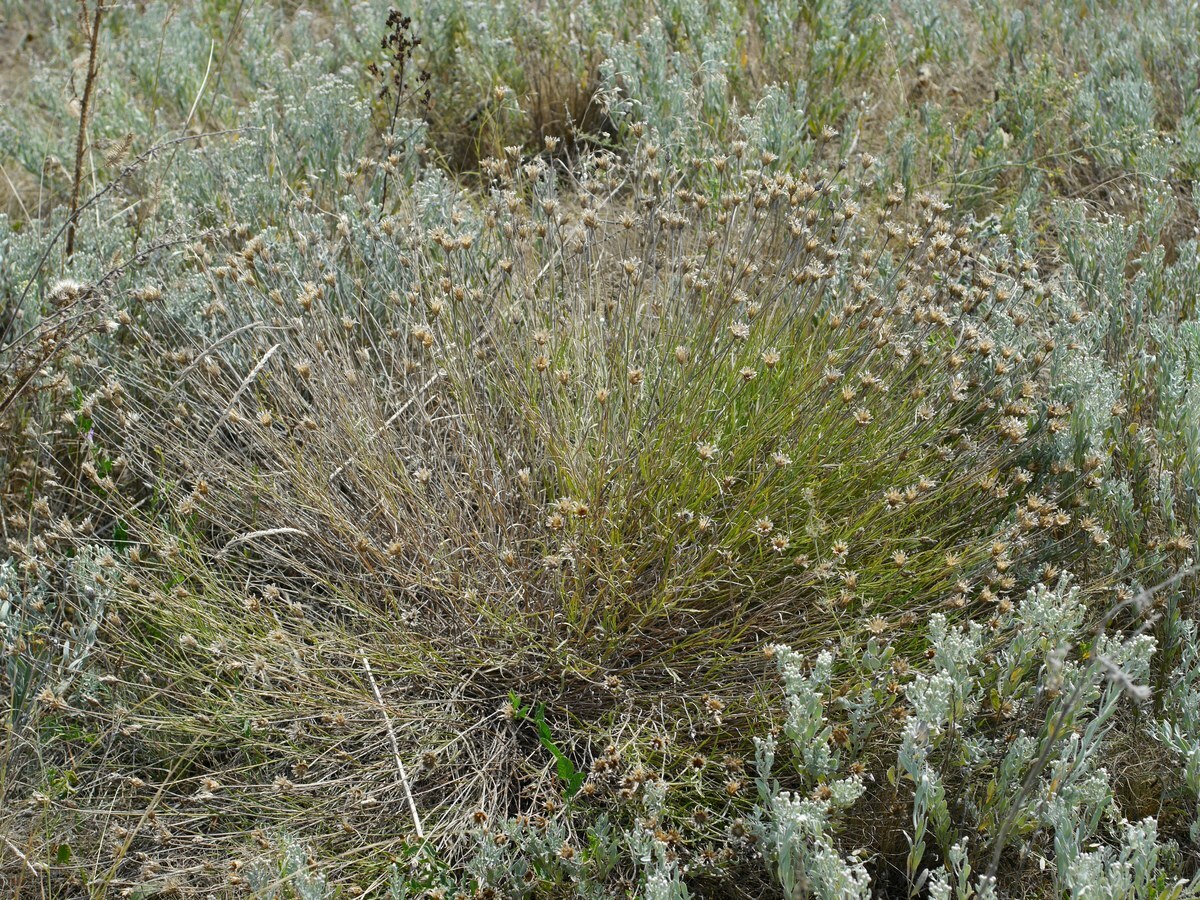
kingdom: Plantae
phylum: Tracheophyta
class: Magnoliopsida
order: Asterales
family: Asteraceae
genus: Psephellus
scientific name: Psephellus trinervius
